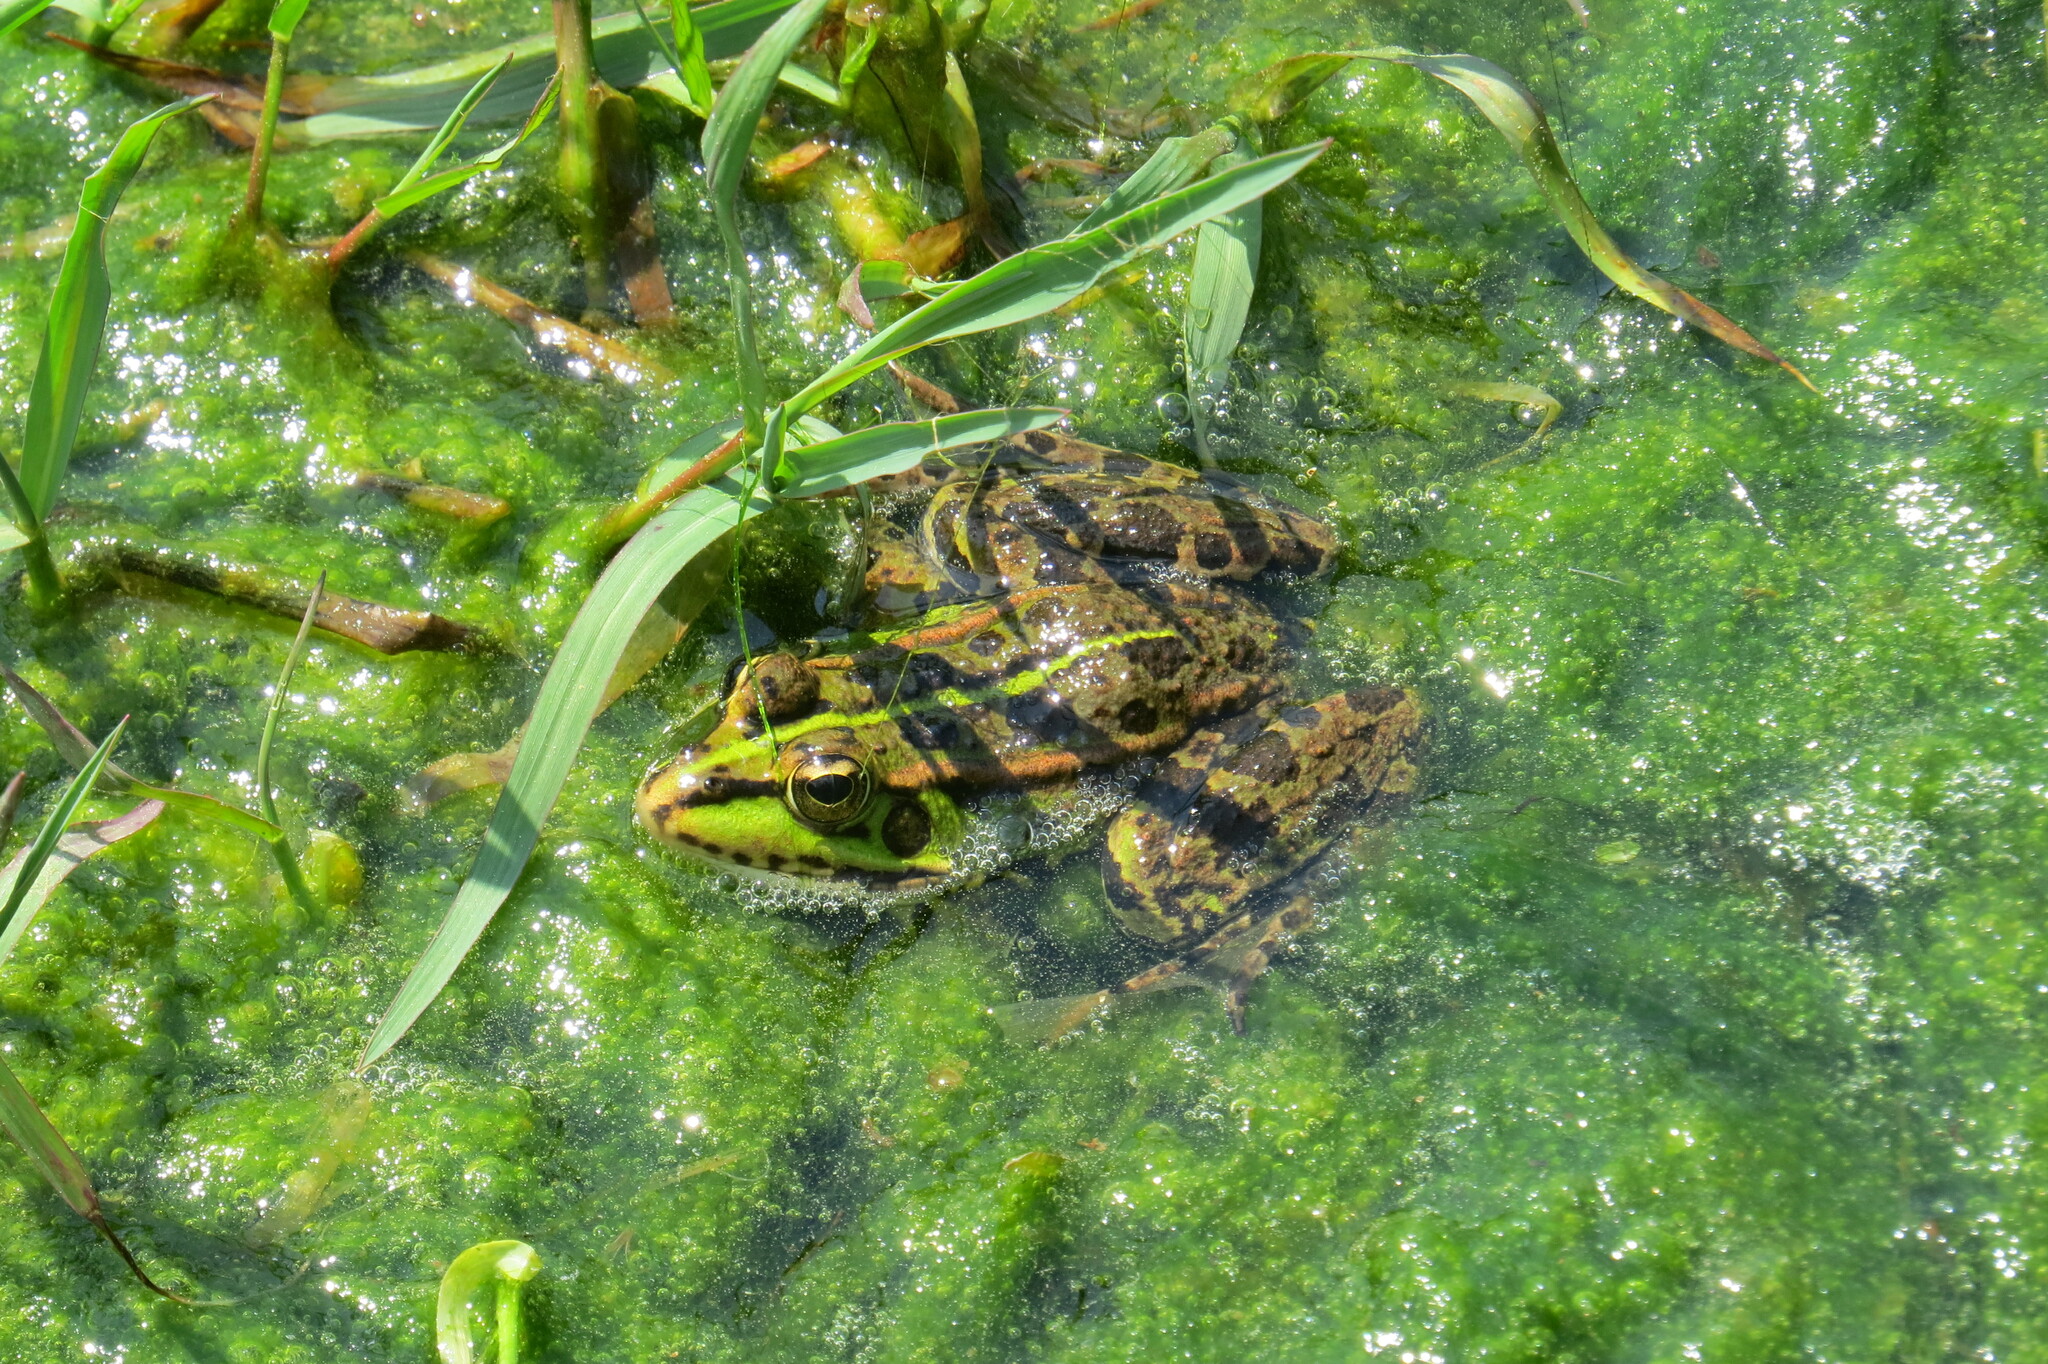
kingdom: Animalia
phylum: Chordata
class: Amphibia
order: Anura
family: Ranidae
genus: Pelophylax
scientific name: Pelophylax perezi
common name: Perez's frog
